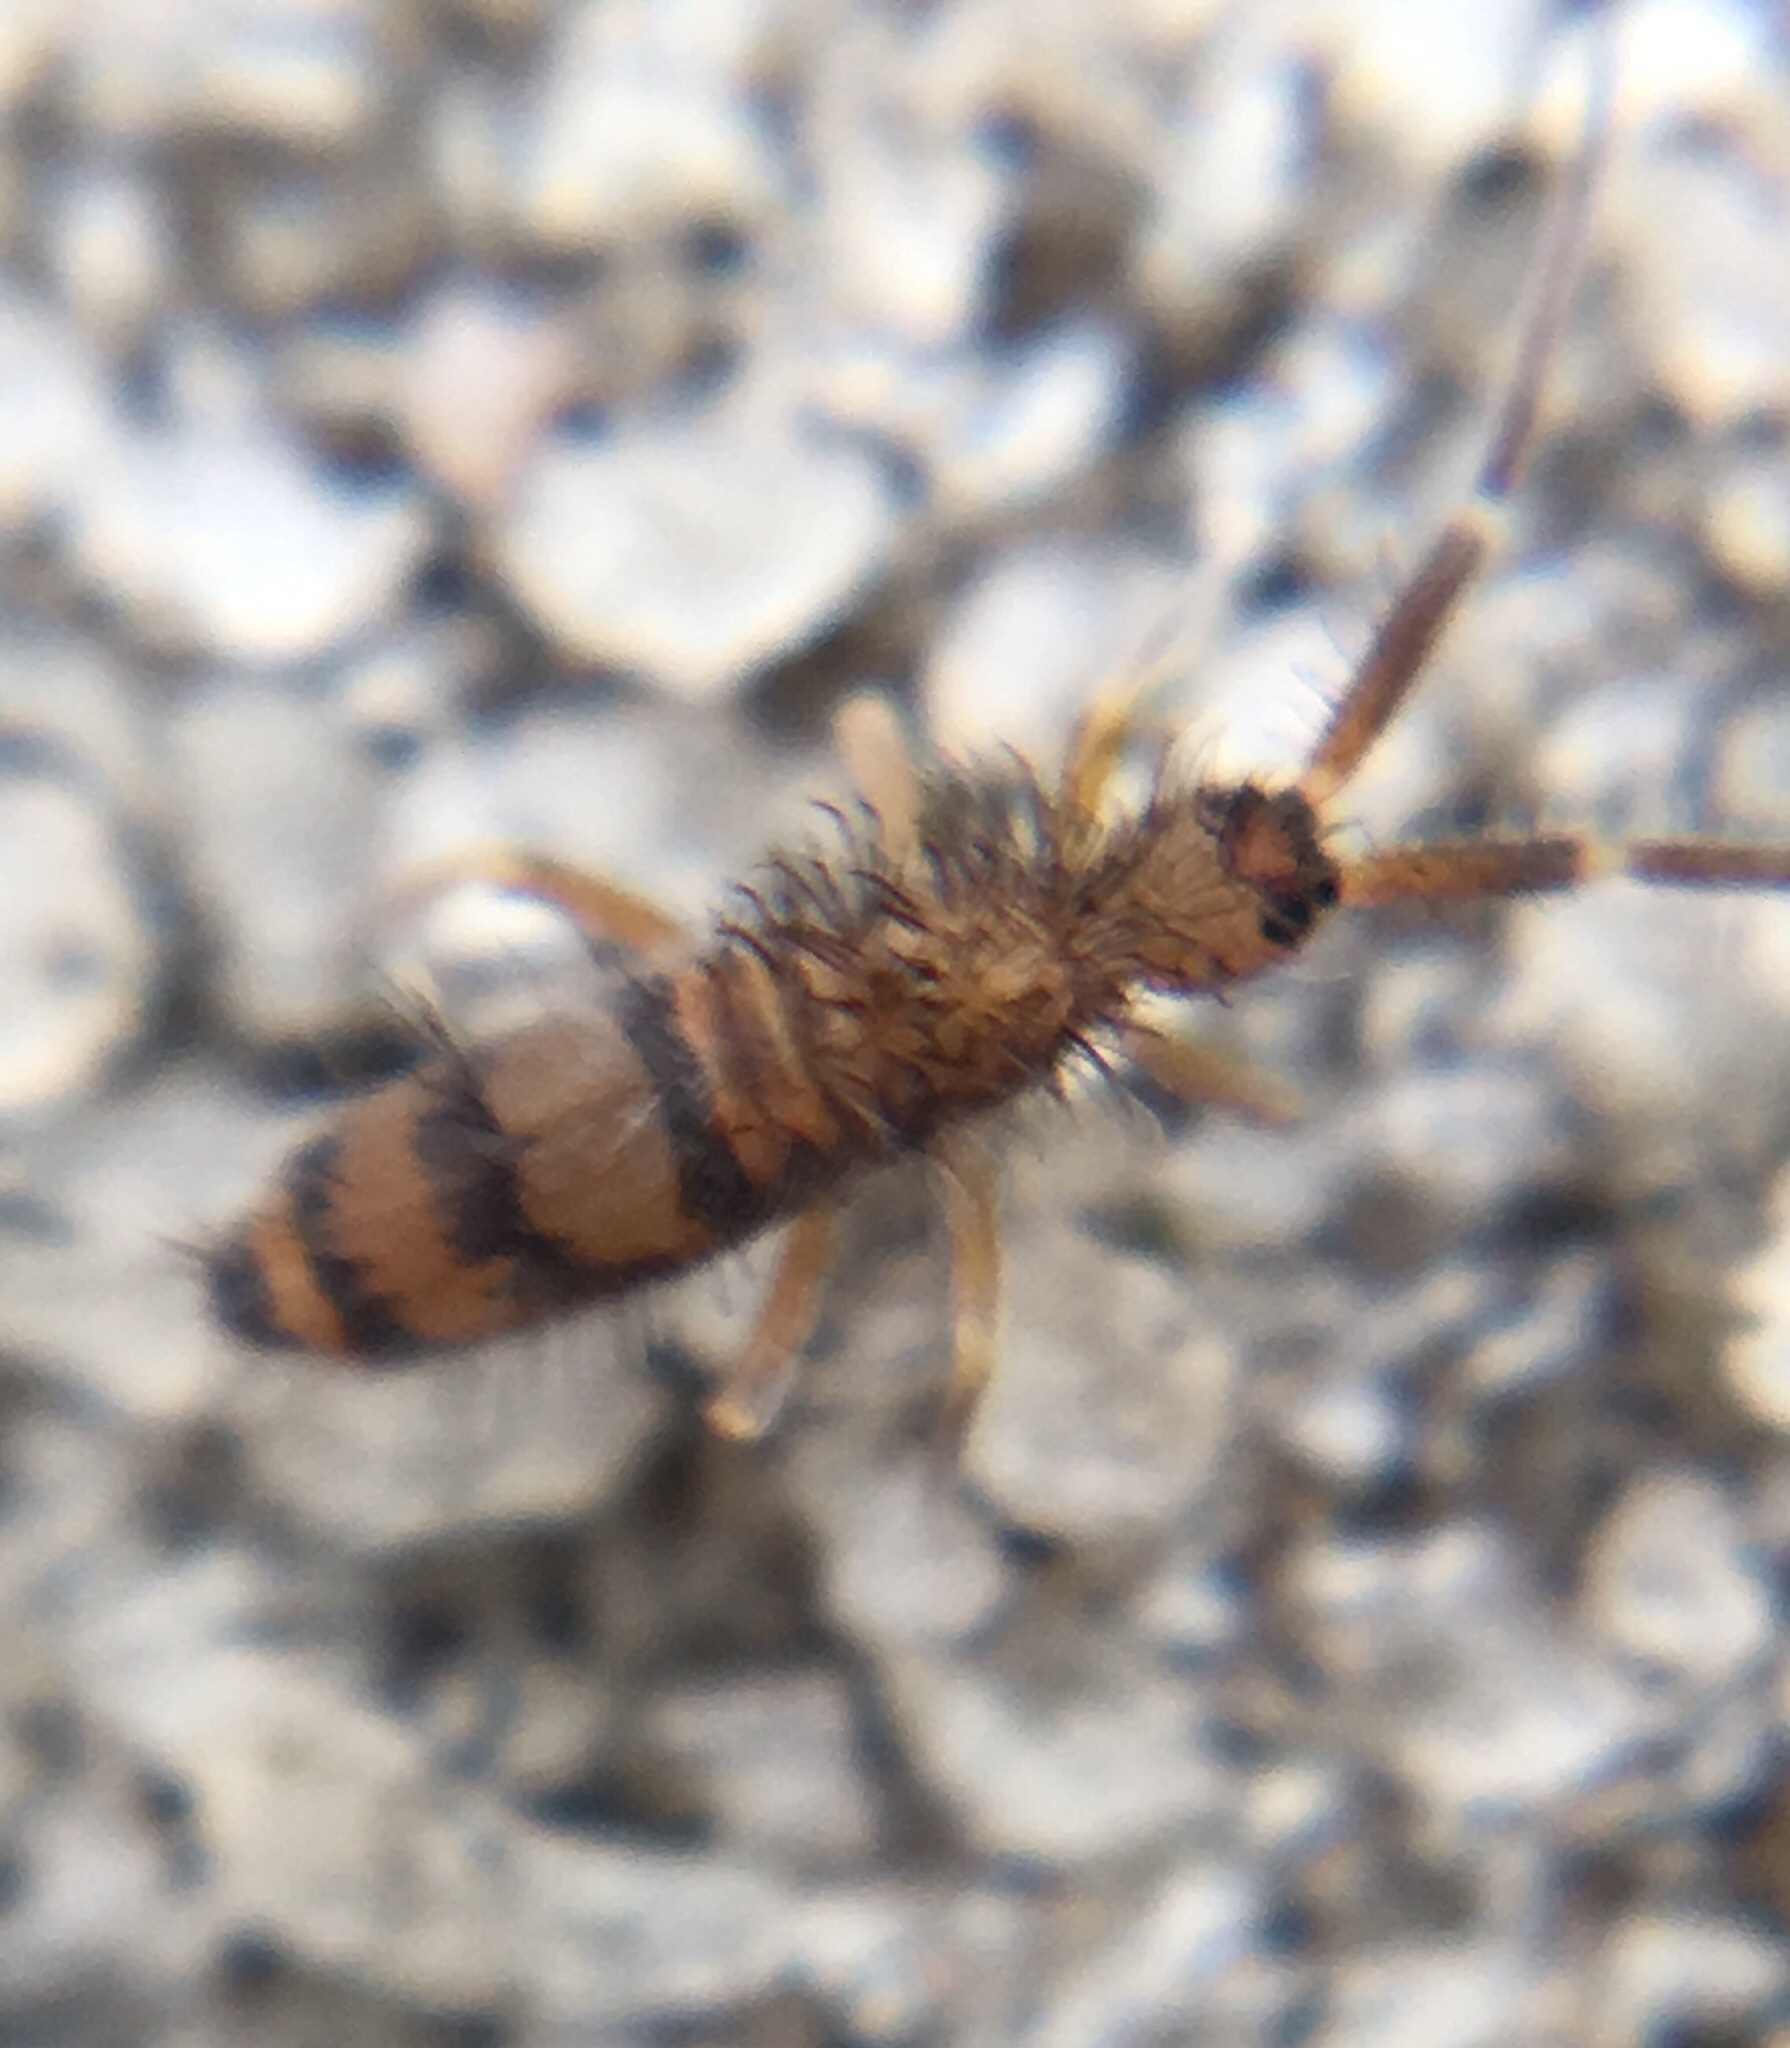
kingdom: Animalia
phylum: Arthropoda
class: Collembola
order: Entomobryomorpha
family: Entomobryidae
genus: Homidia
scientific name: Homidia sauteri
